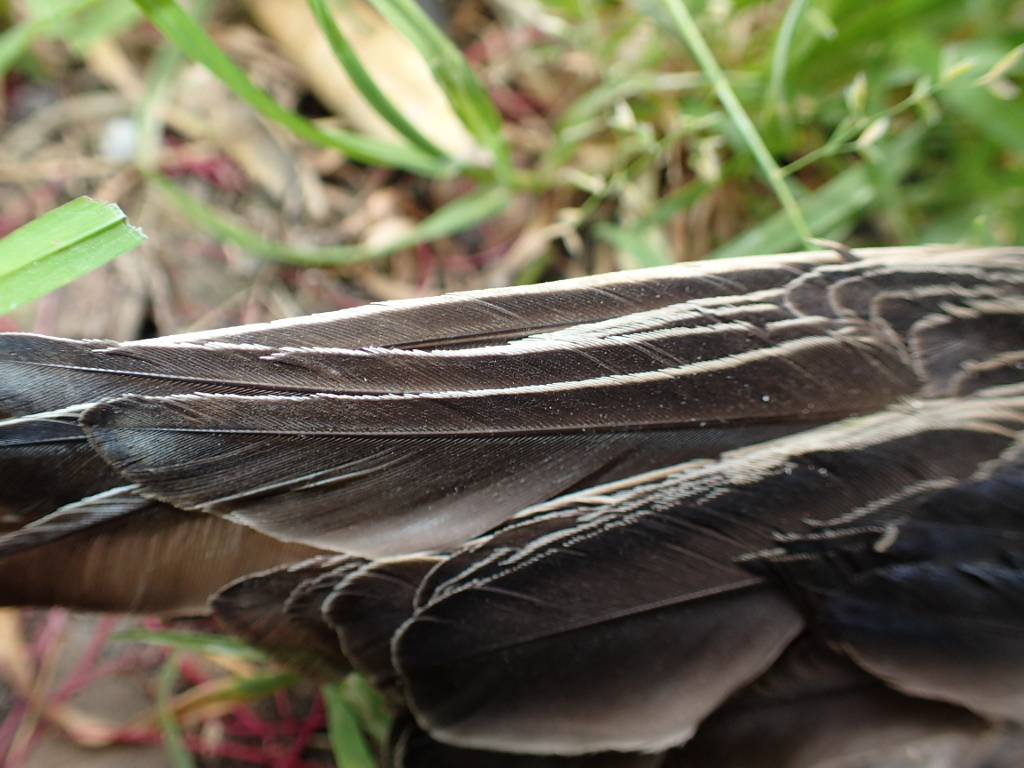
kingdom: Animalia
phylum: Chordata
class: Aves
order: Passeriformes
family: Sturnidae
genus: Sturnus
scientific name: Sturnus vulgaris
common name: Common starling
